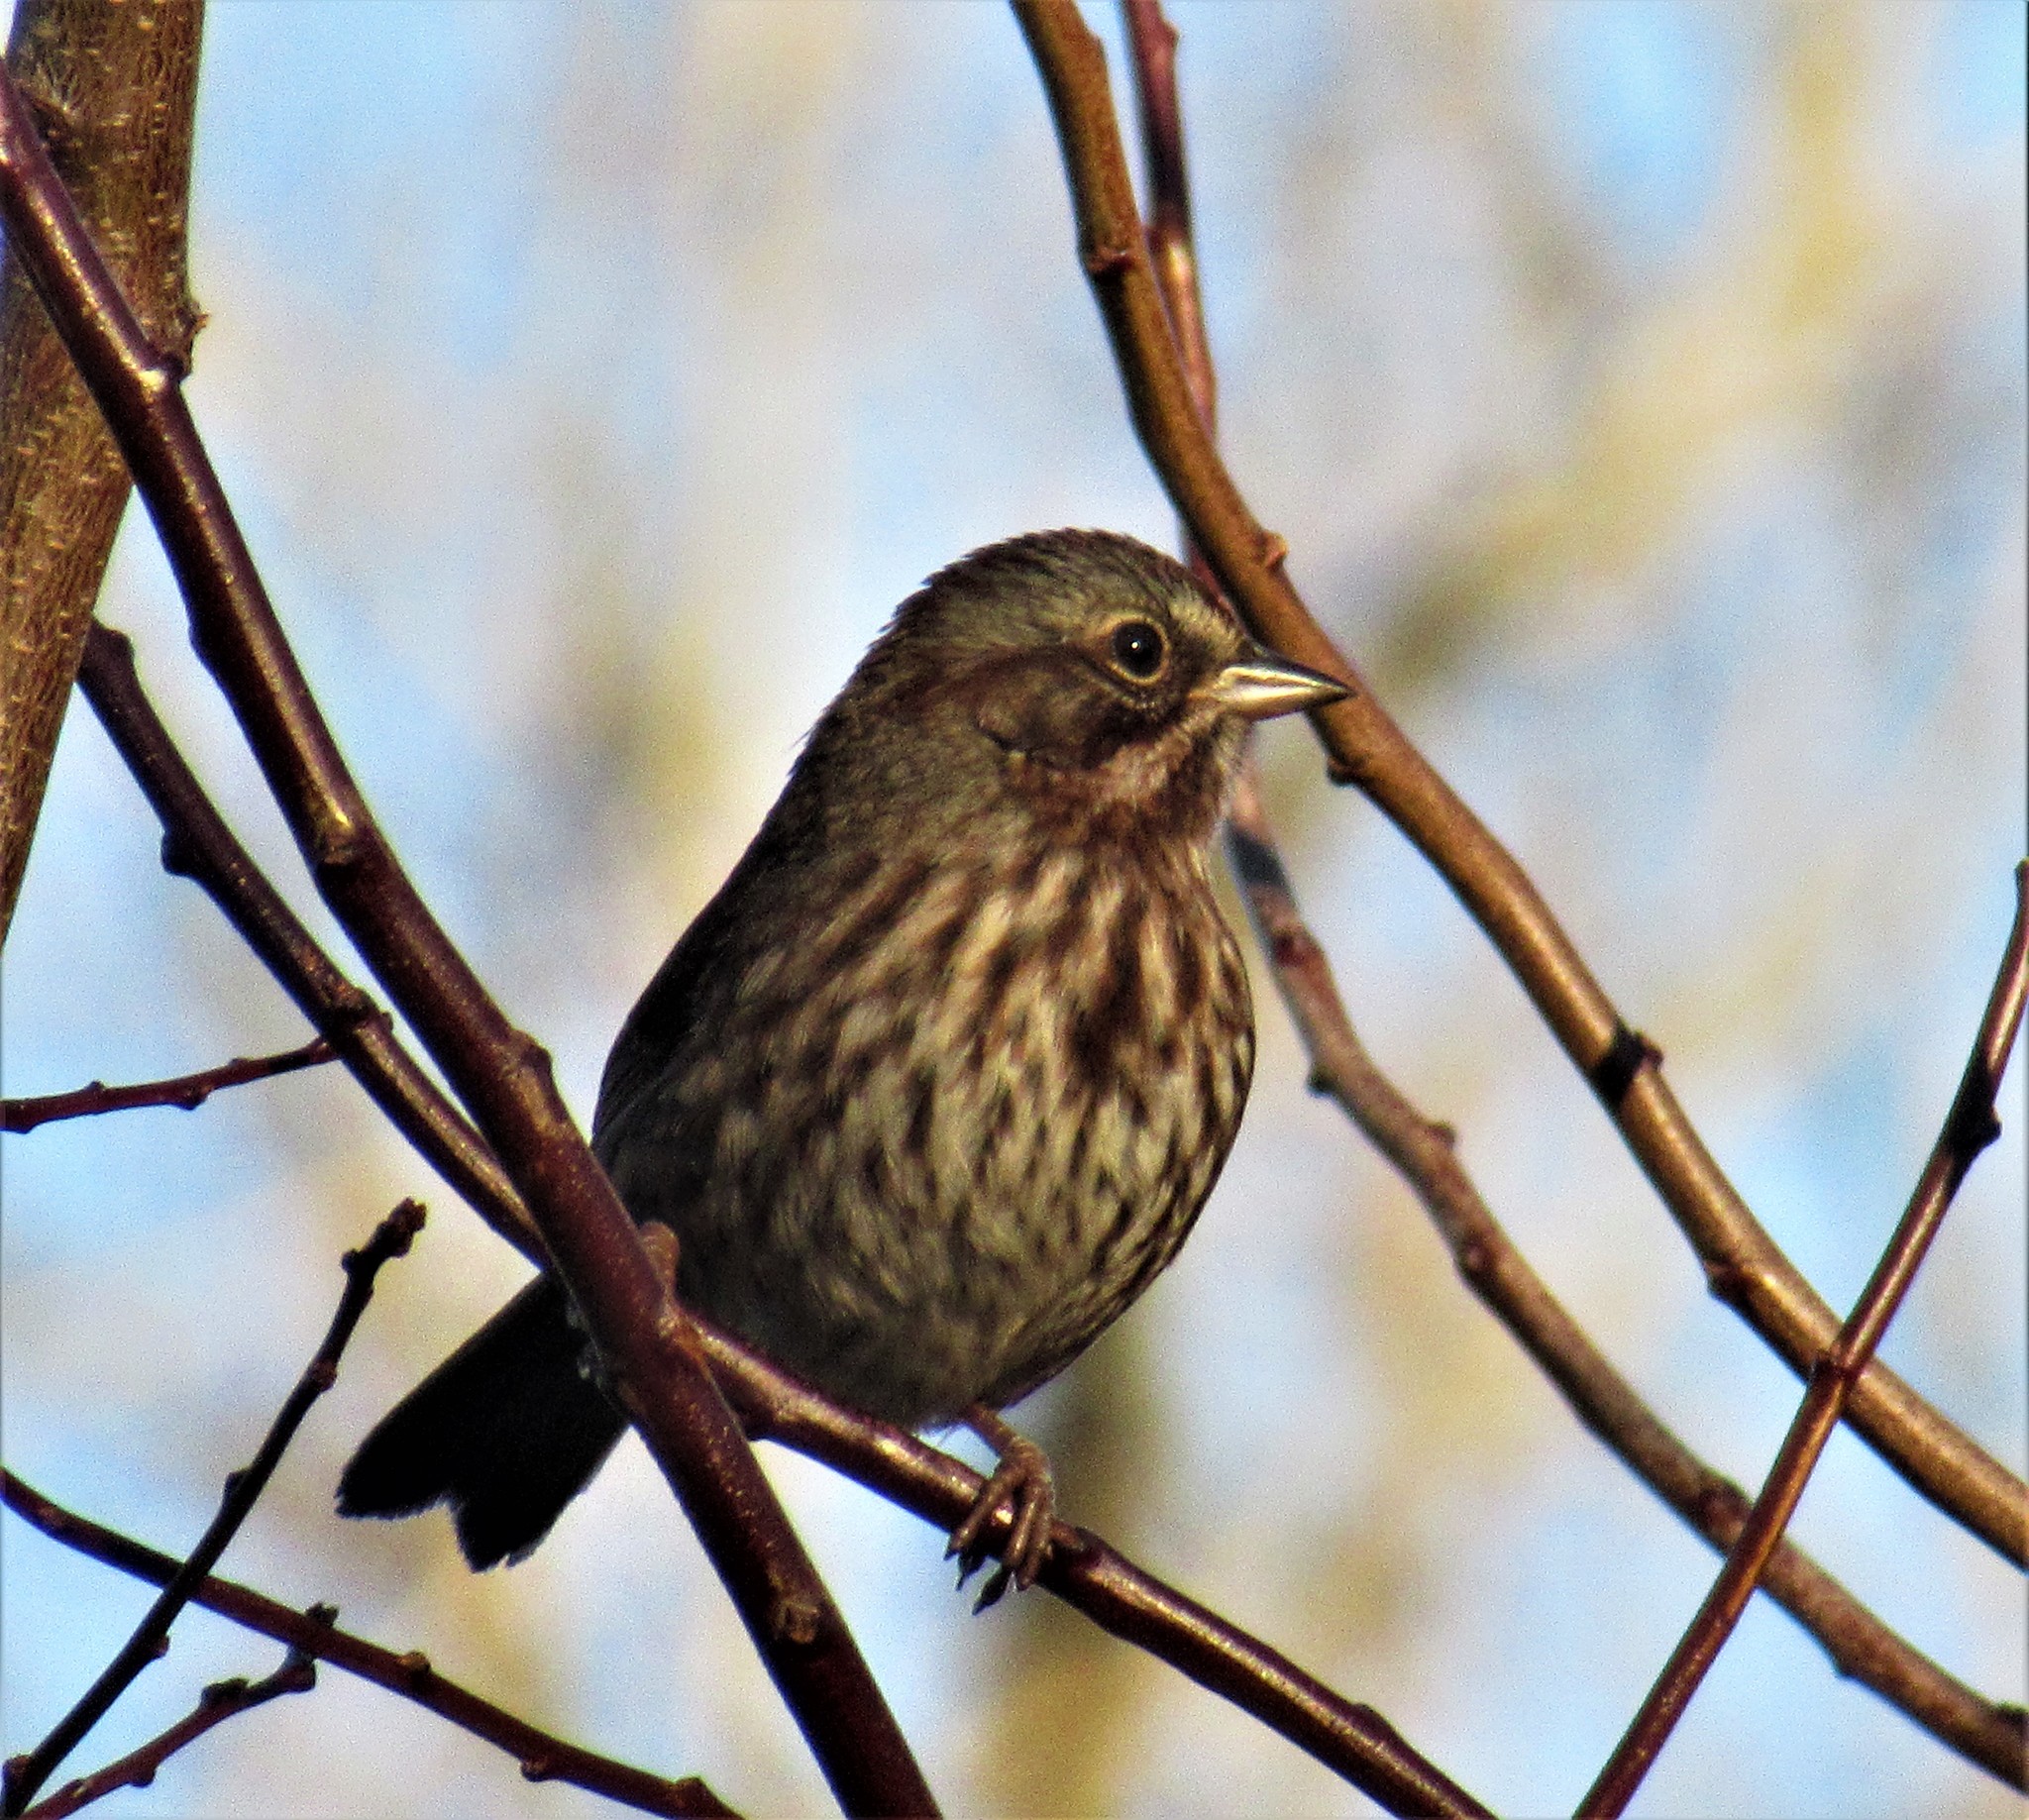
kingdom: Animalia
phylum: Chordata
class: Aves
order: Passeriformes
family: Passerellidae
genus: Melospiza
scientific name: Melospiza melodia
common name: Song sparrow
